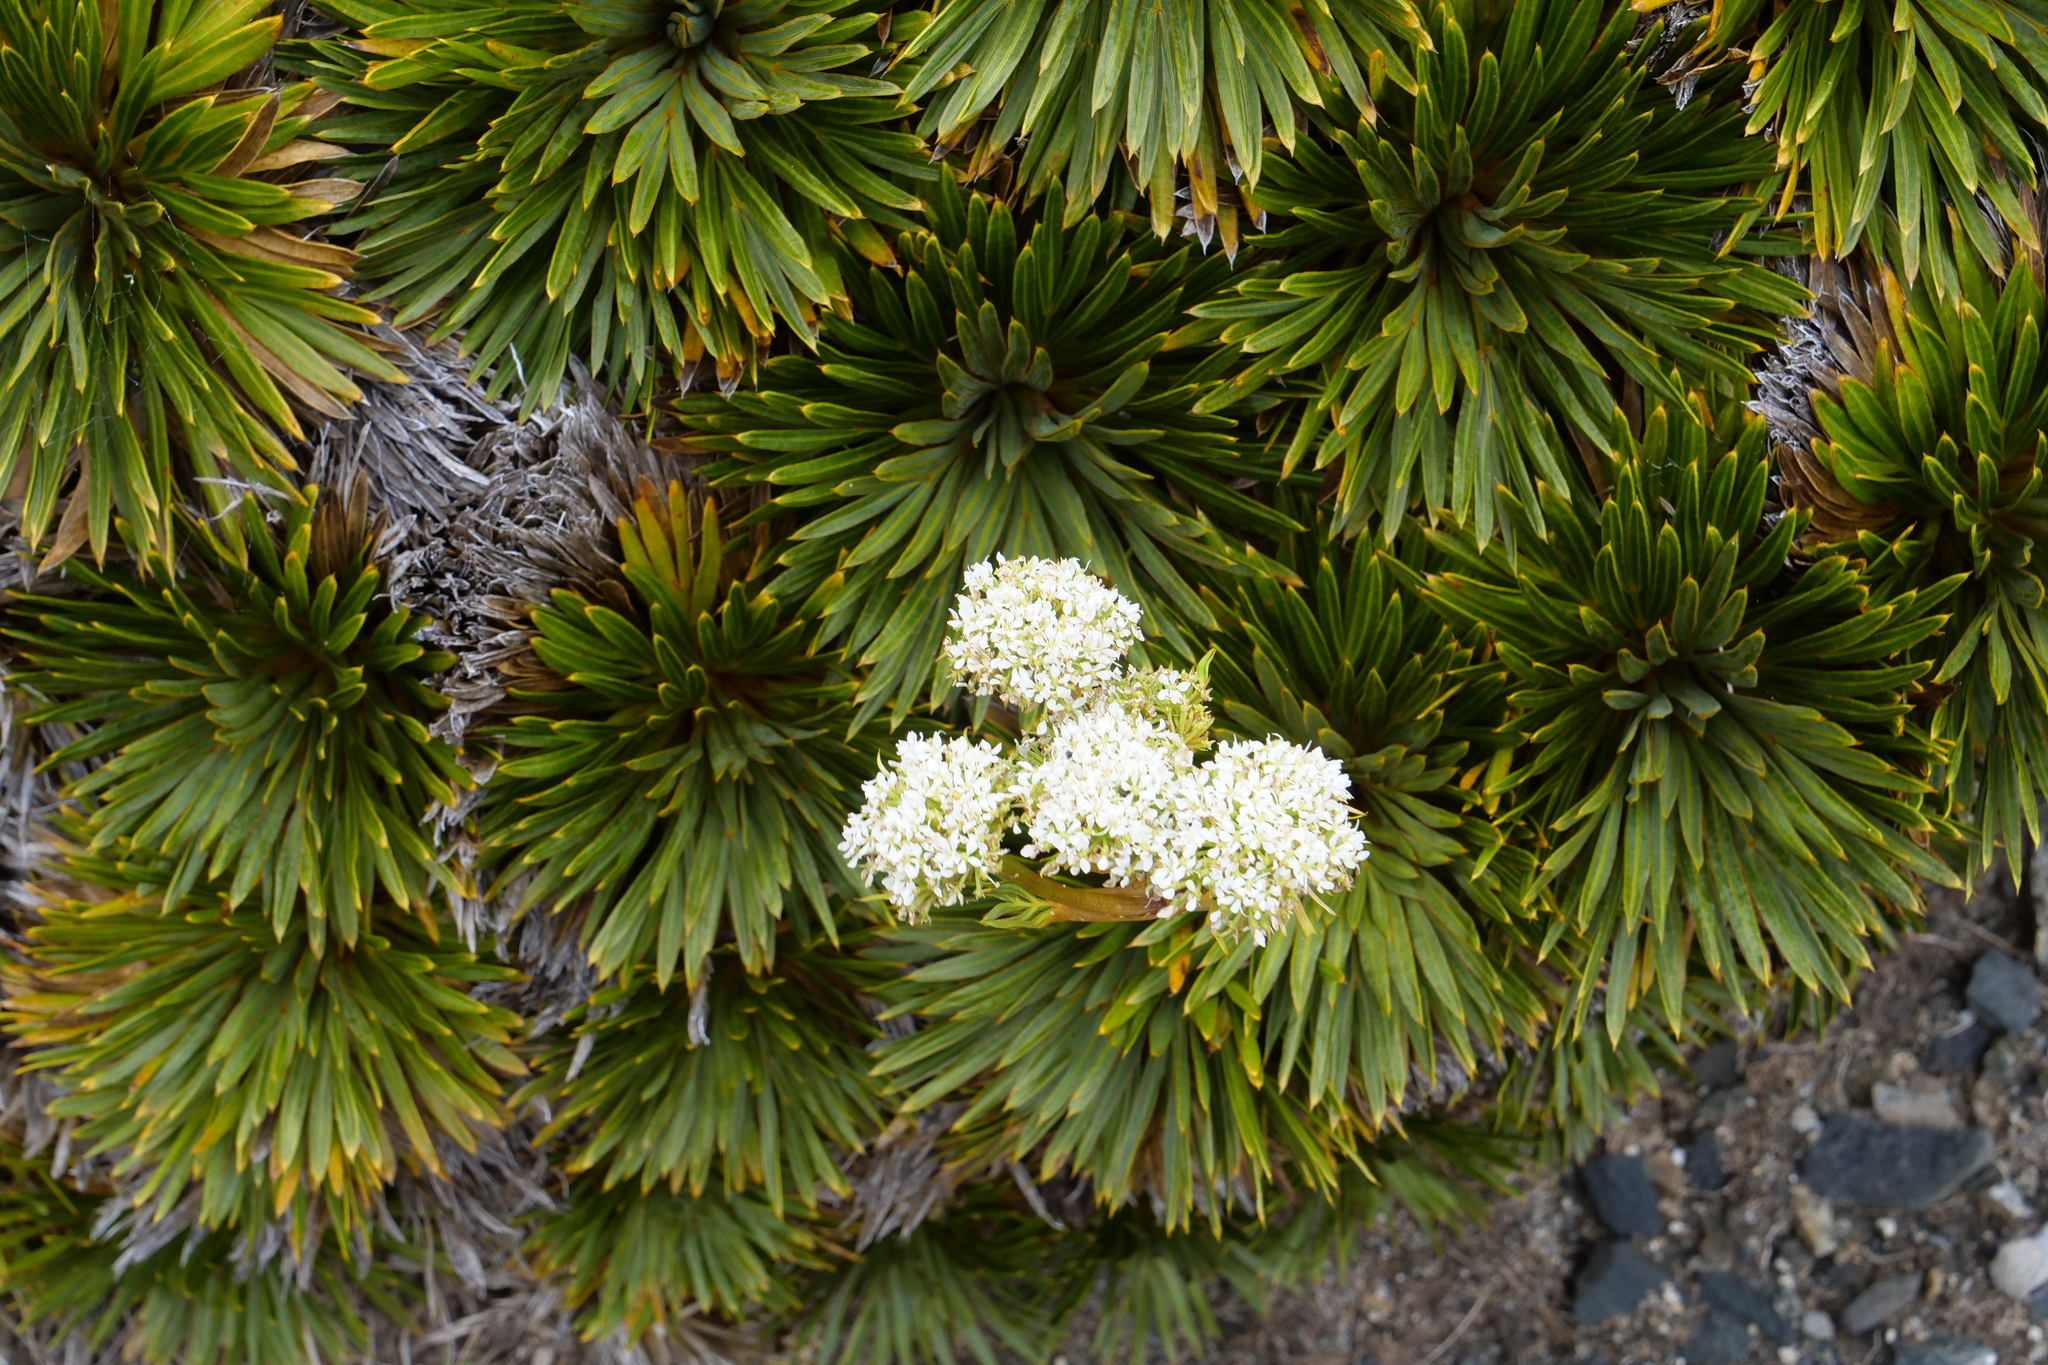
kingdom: Plantae
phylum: Tracheophyta
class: Magnoliopsida
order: Apiales
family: Apiaceae
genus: Aciphylla
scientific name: Aciphylla congesta
